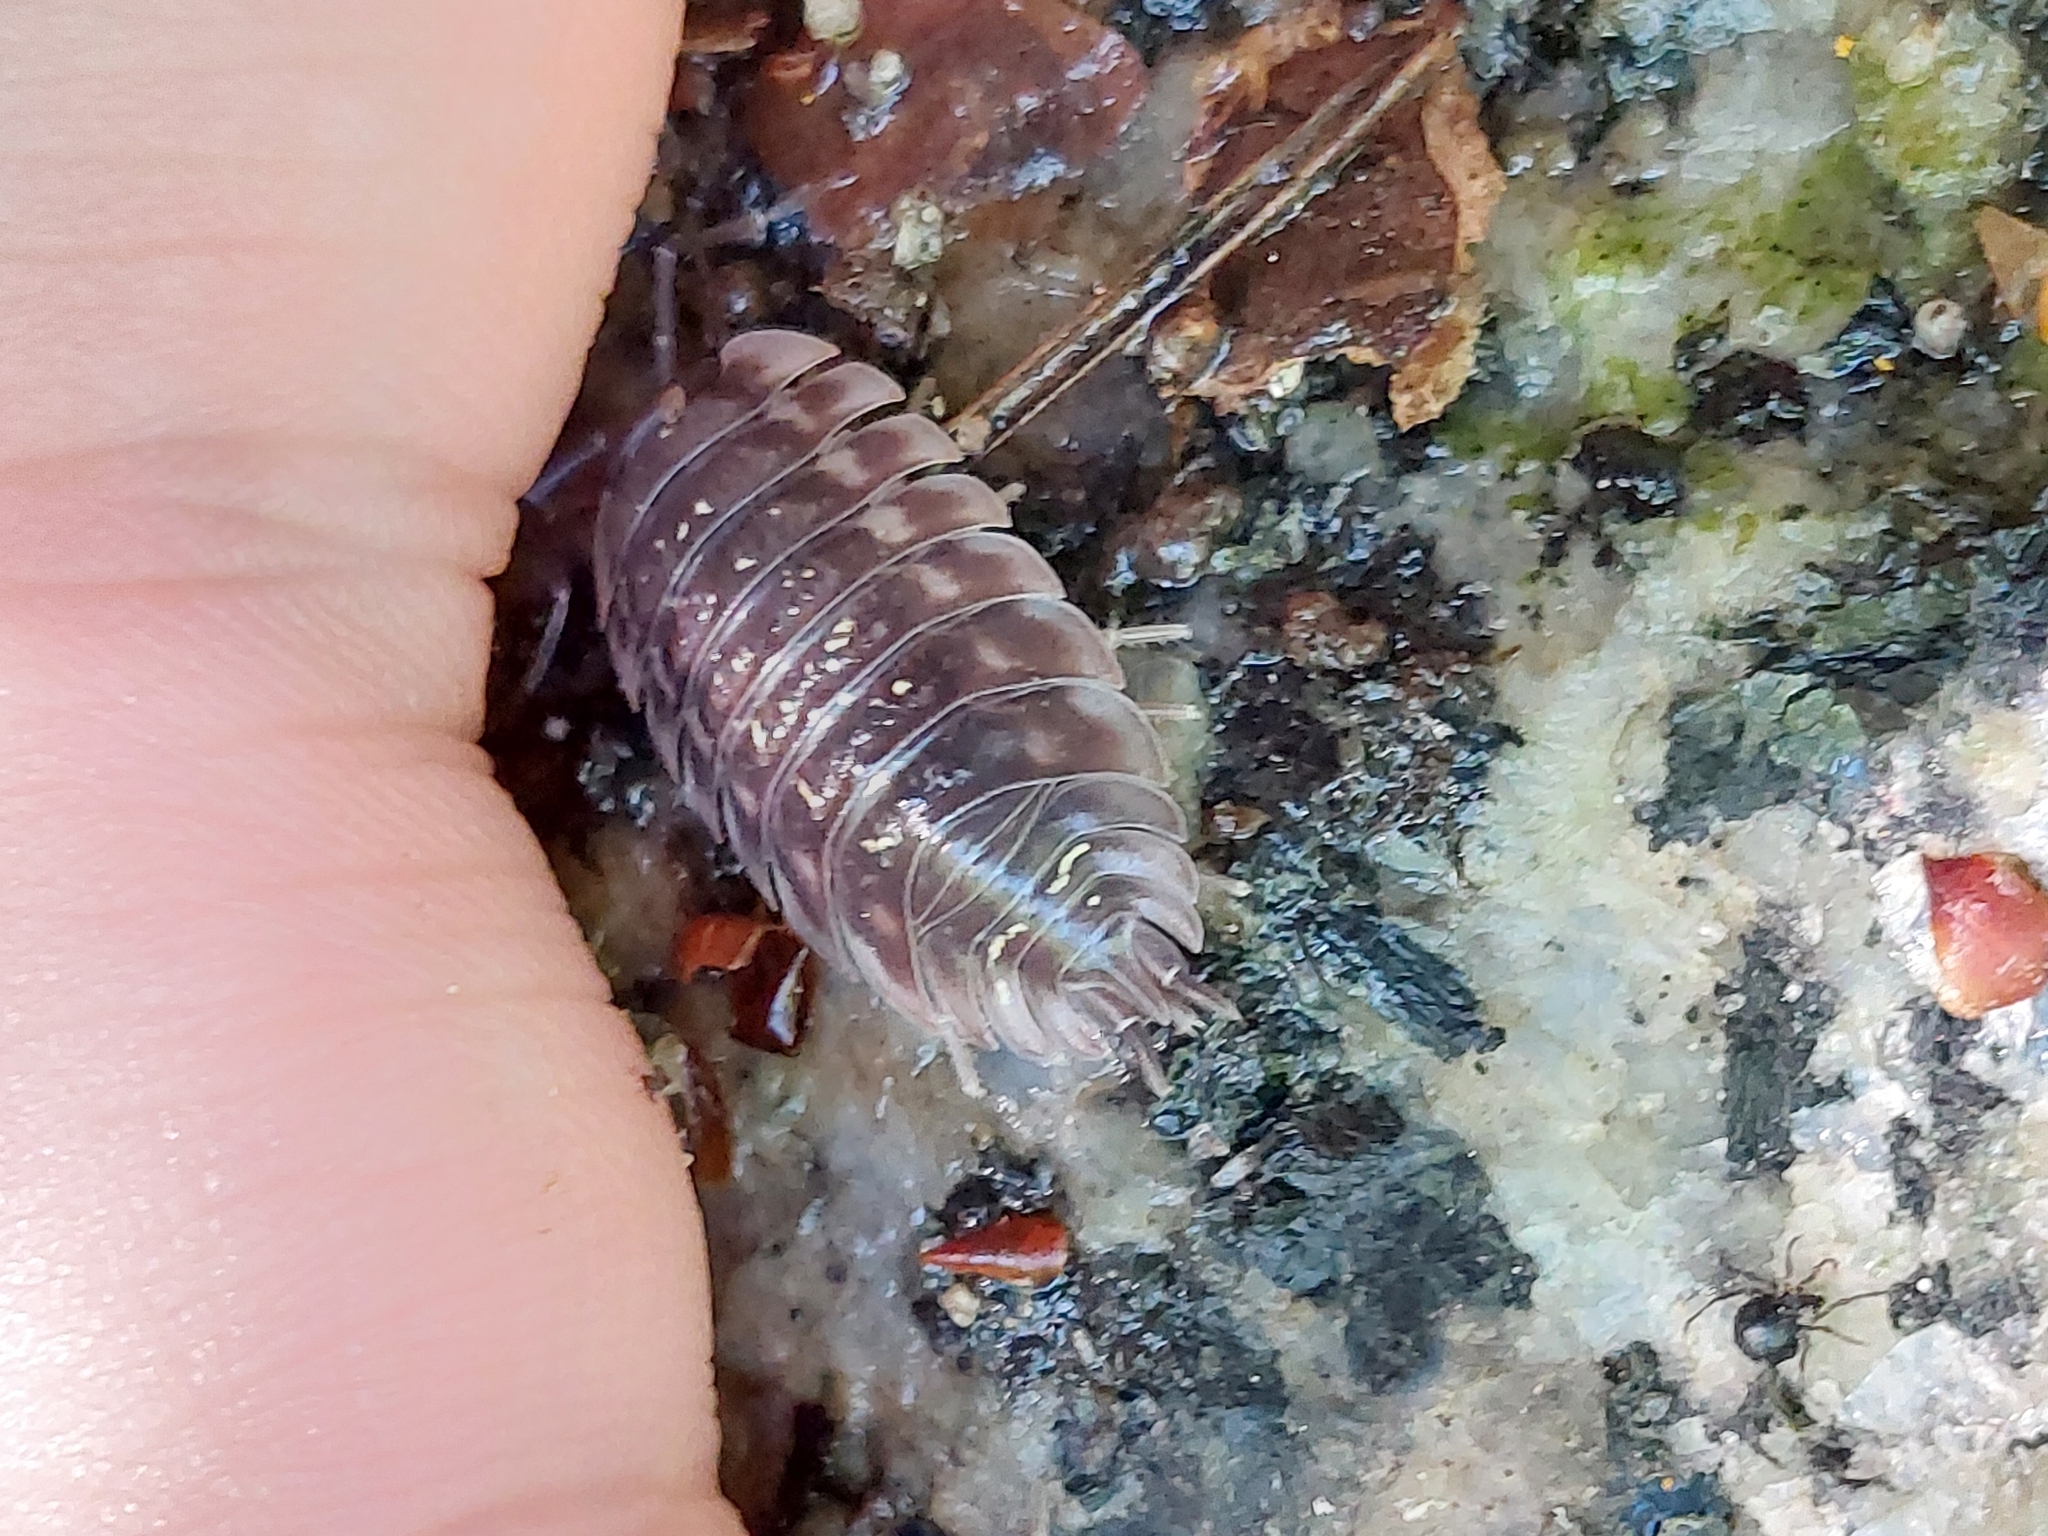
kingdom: Animalia
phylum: Arthropoda
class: Malacostraca
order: Isopoda
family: Oniscidae
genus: Oniscus
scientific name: Oniscus asellus
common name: Common shiny woodlouse
